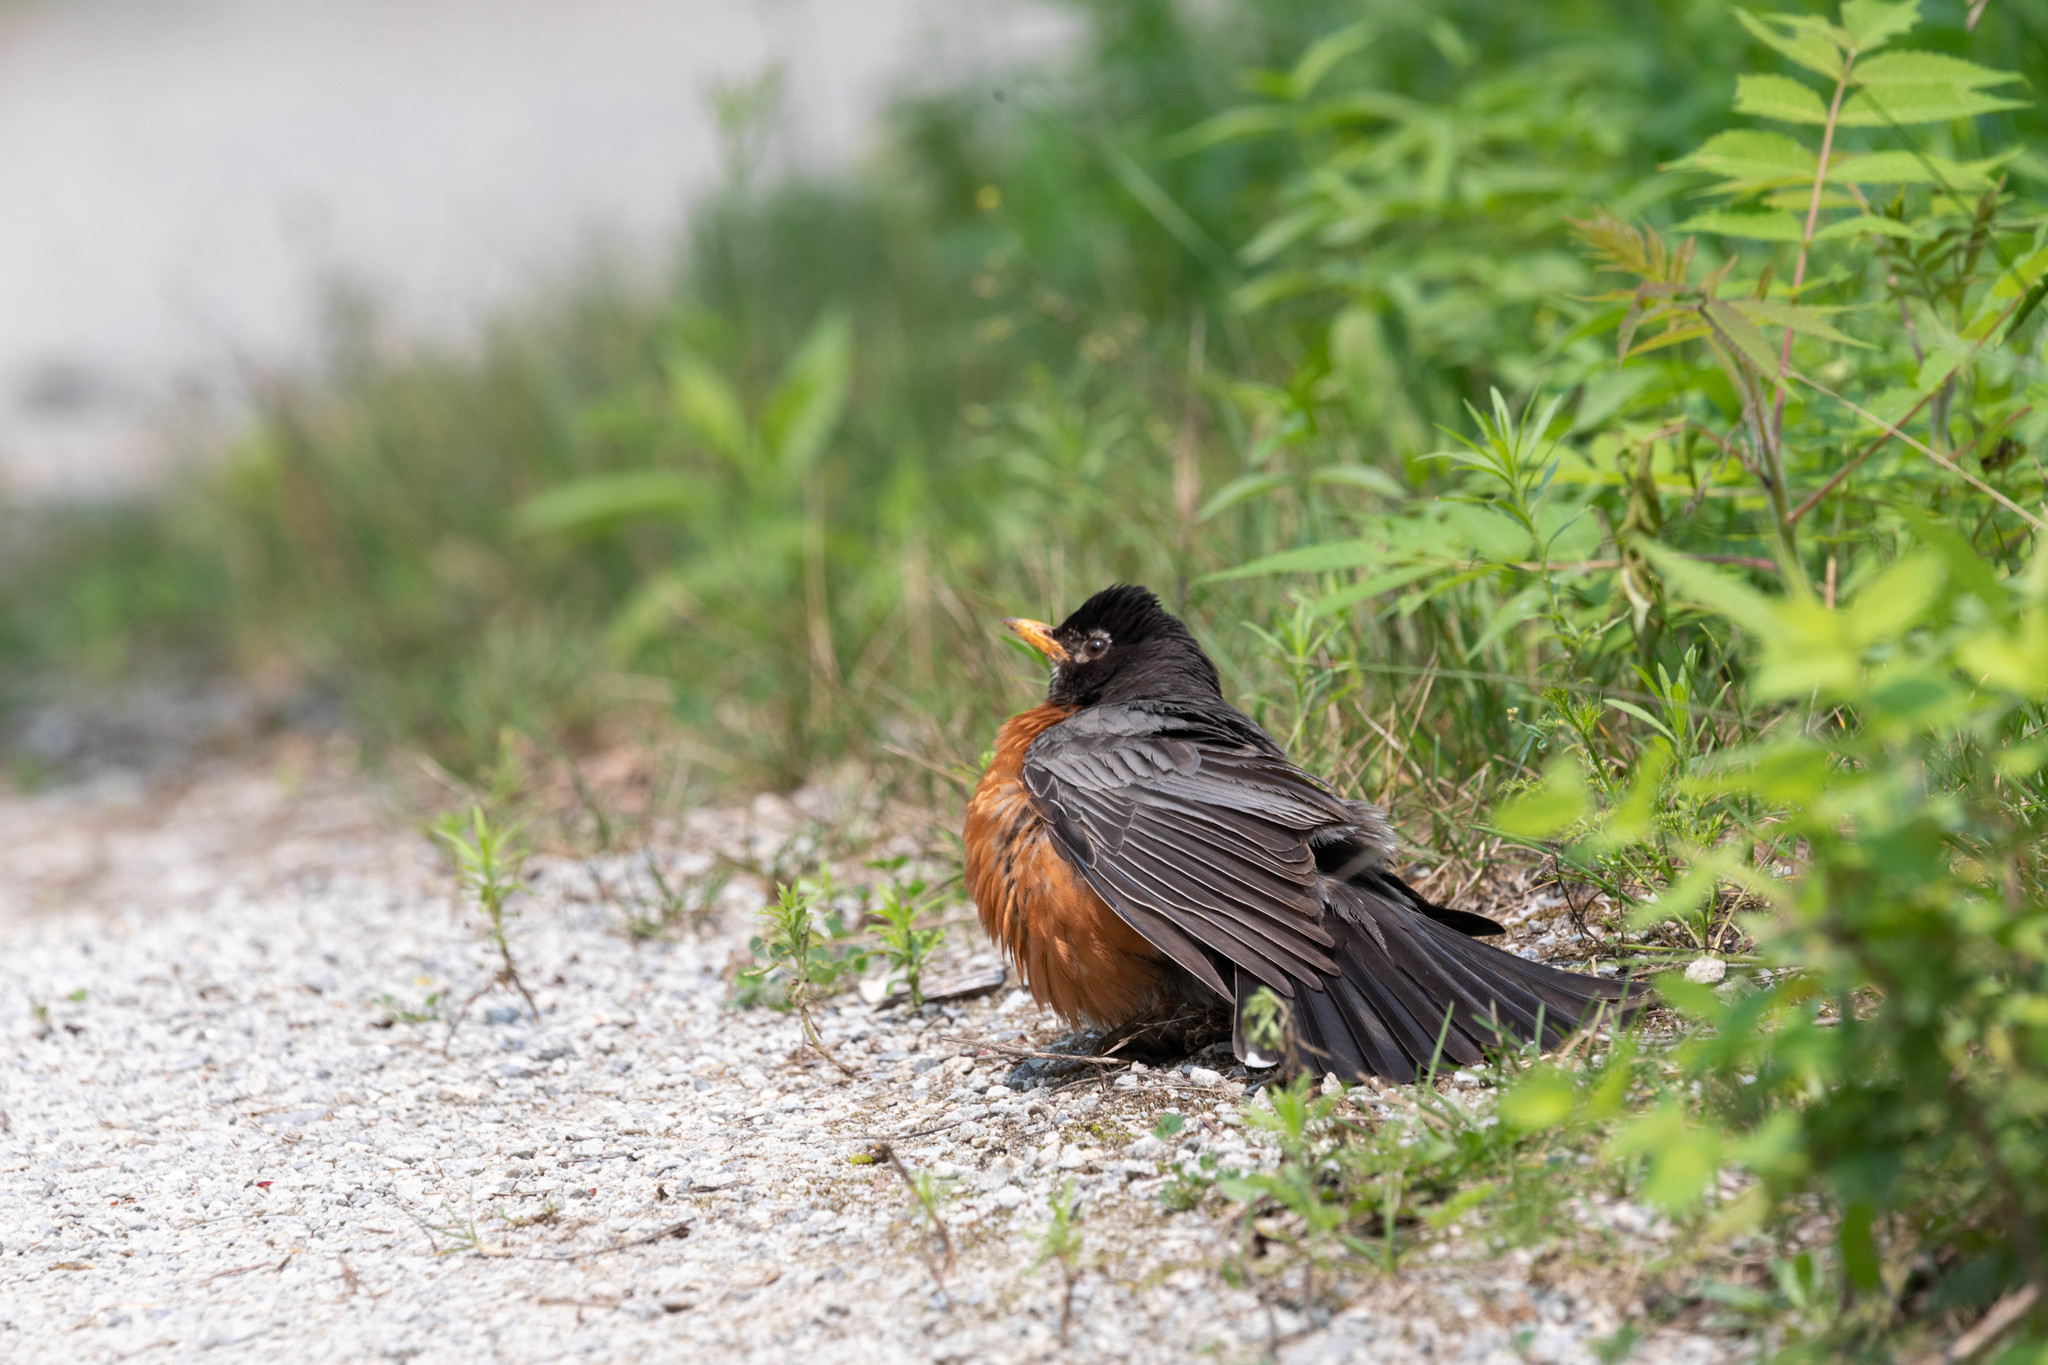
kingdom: Animalia
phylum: Chordata
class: Aves
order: Passeriformes
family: Turdidae
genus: Turdus
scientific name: Turdus migratorius
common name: American robin
